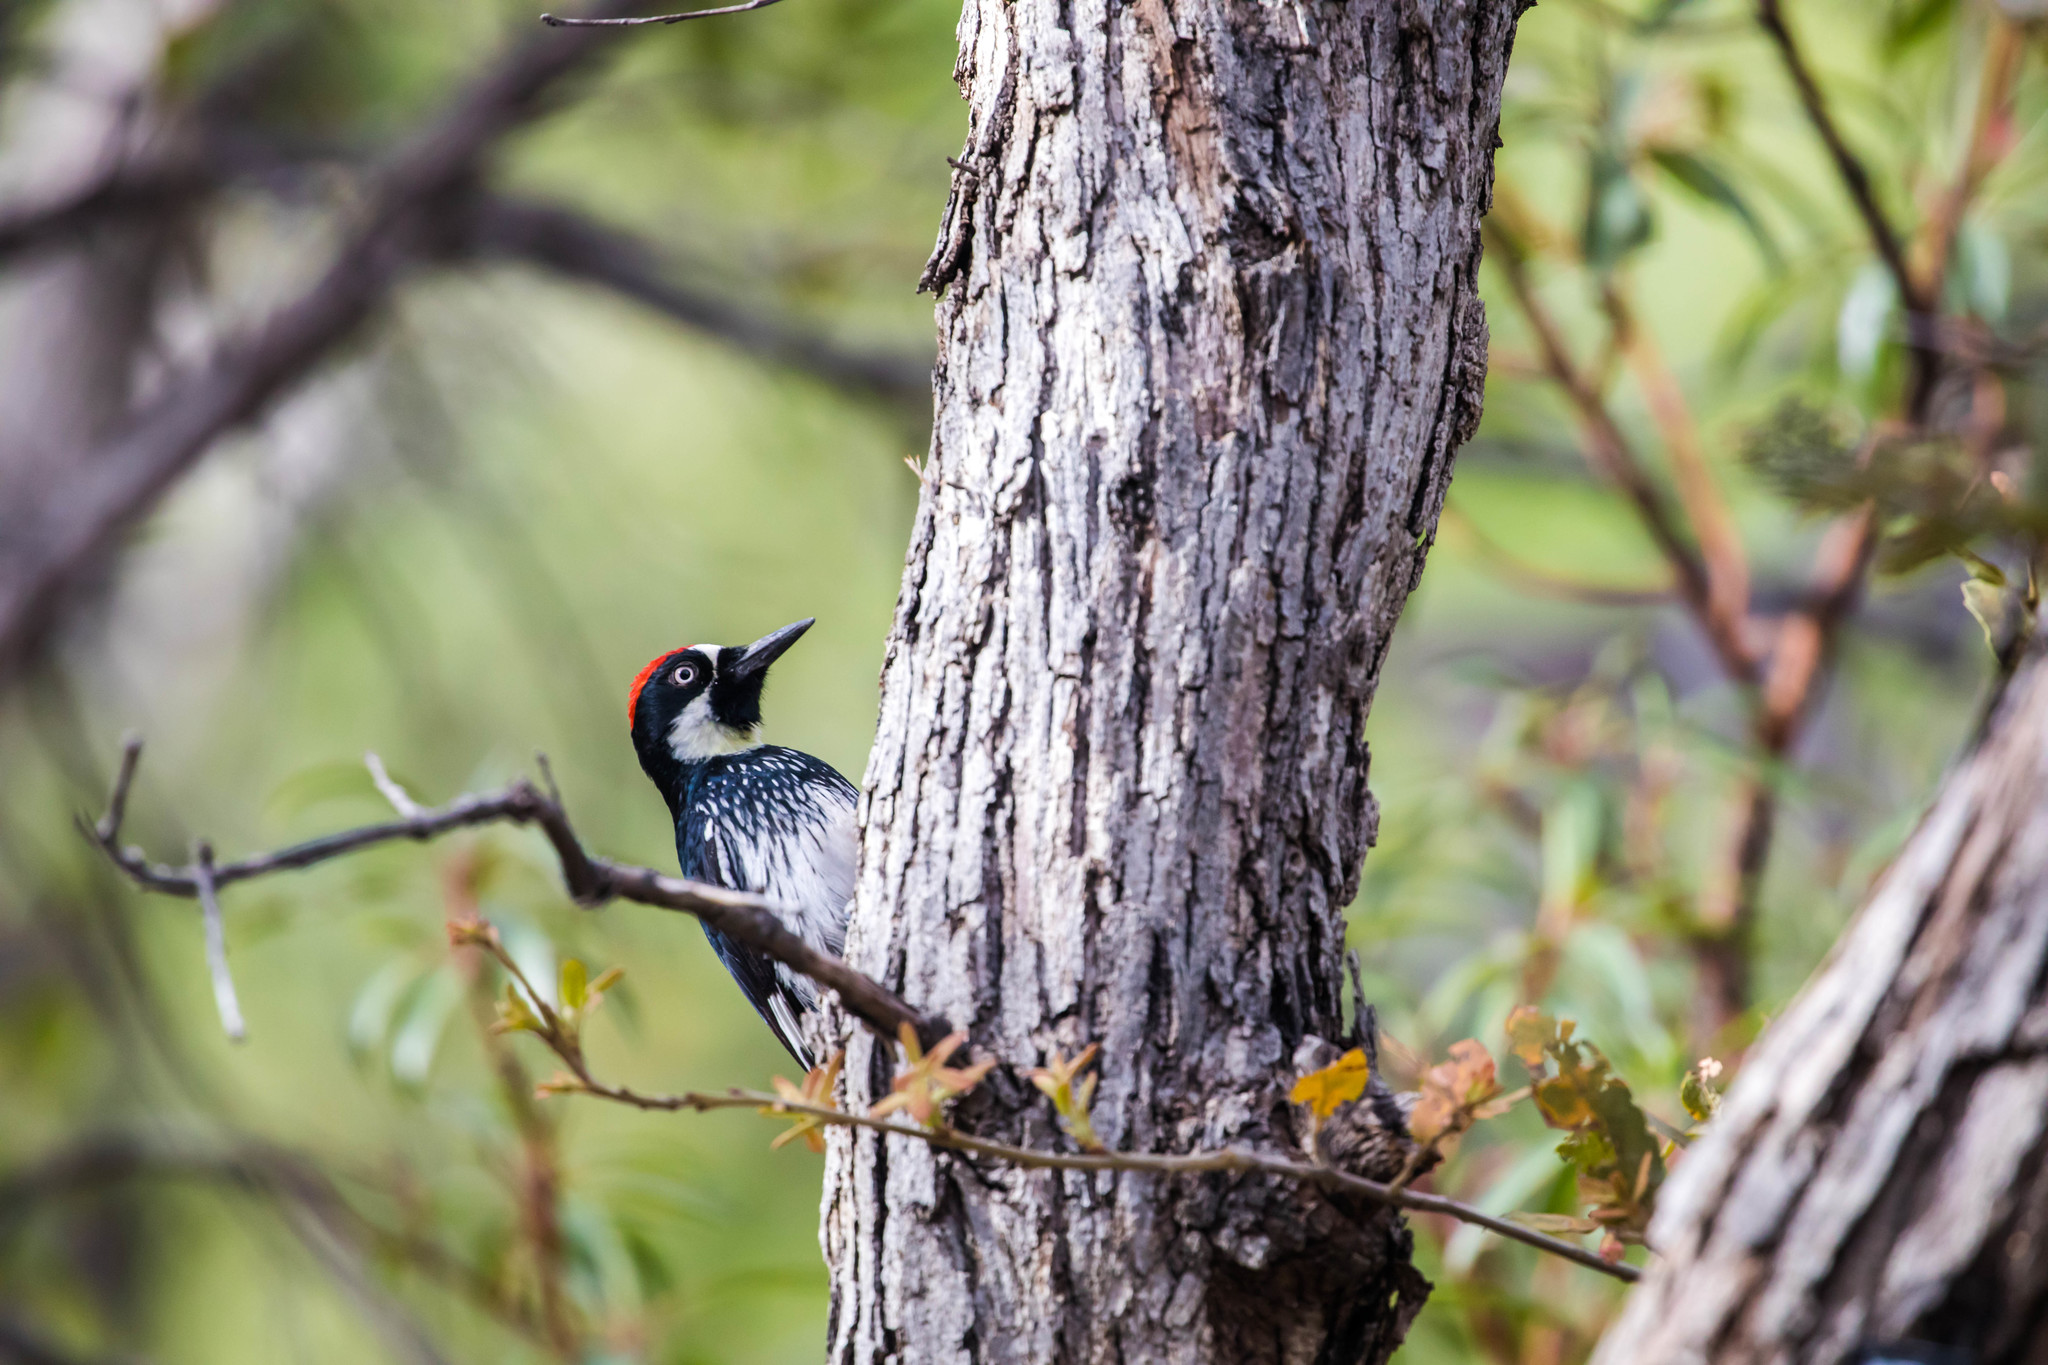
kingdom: Animalia
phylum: Chordata
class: Aves
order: Piciformes
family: Picidae
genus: Melanerpes
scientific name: Melanerpes formicivorus
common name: Acorn woodpecker
